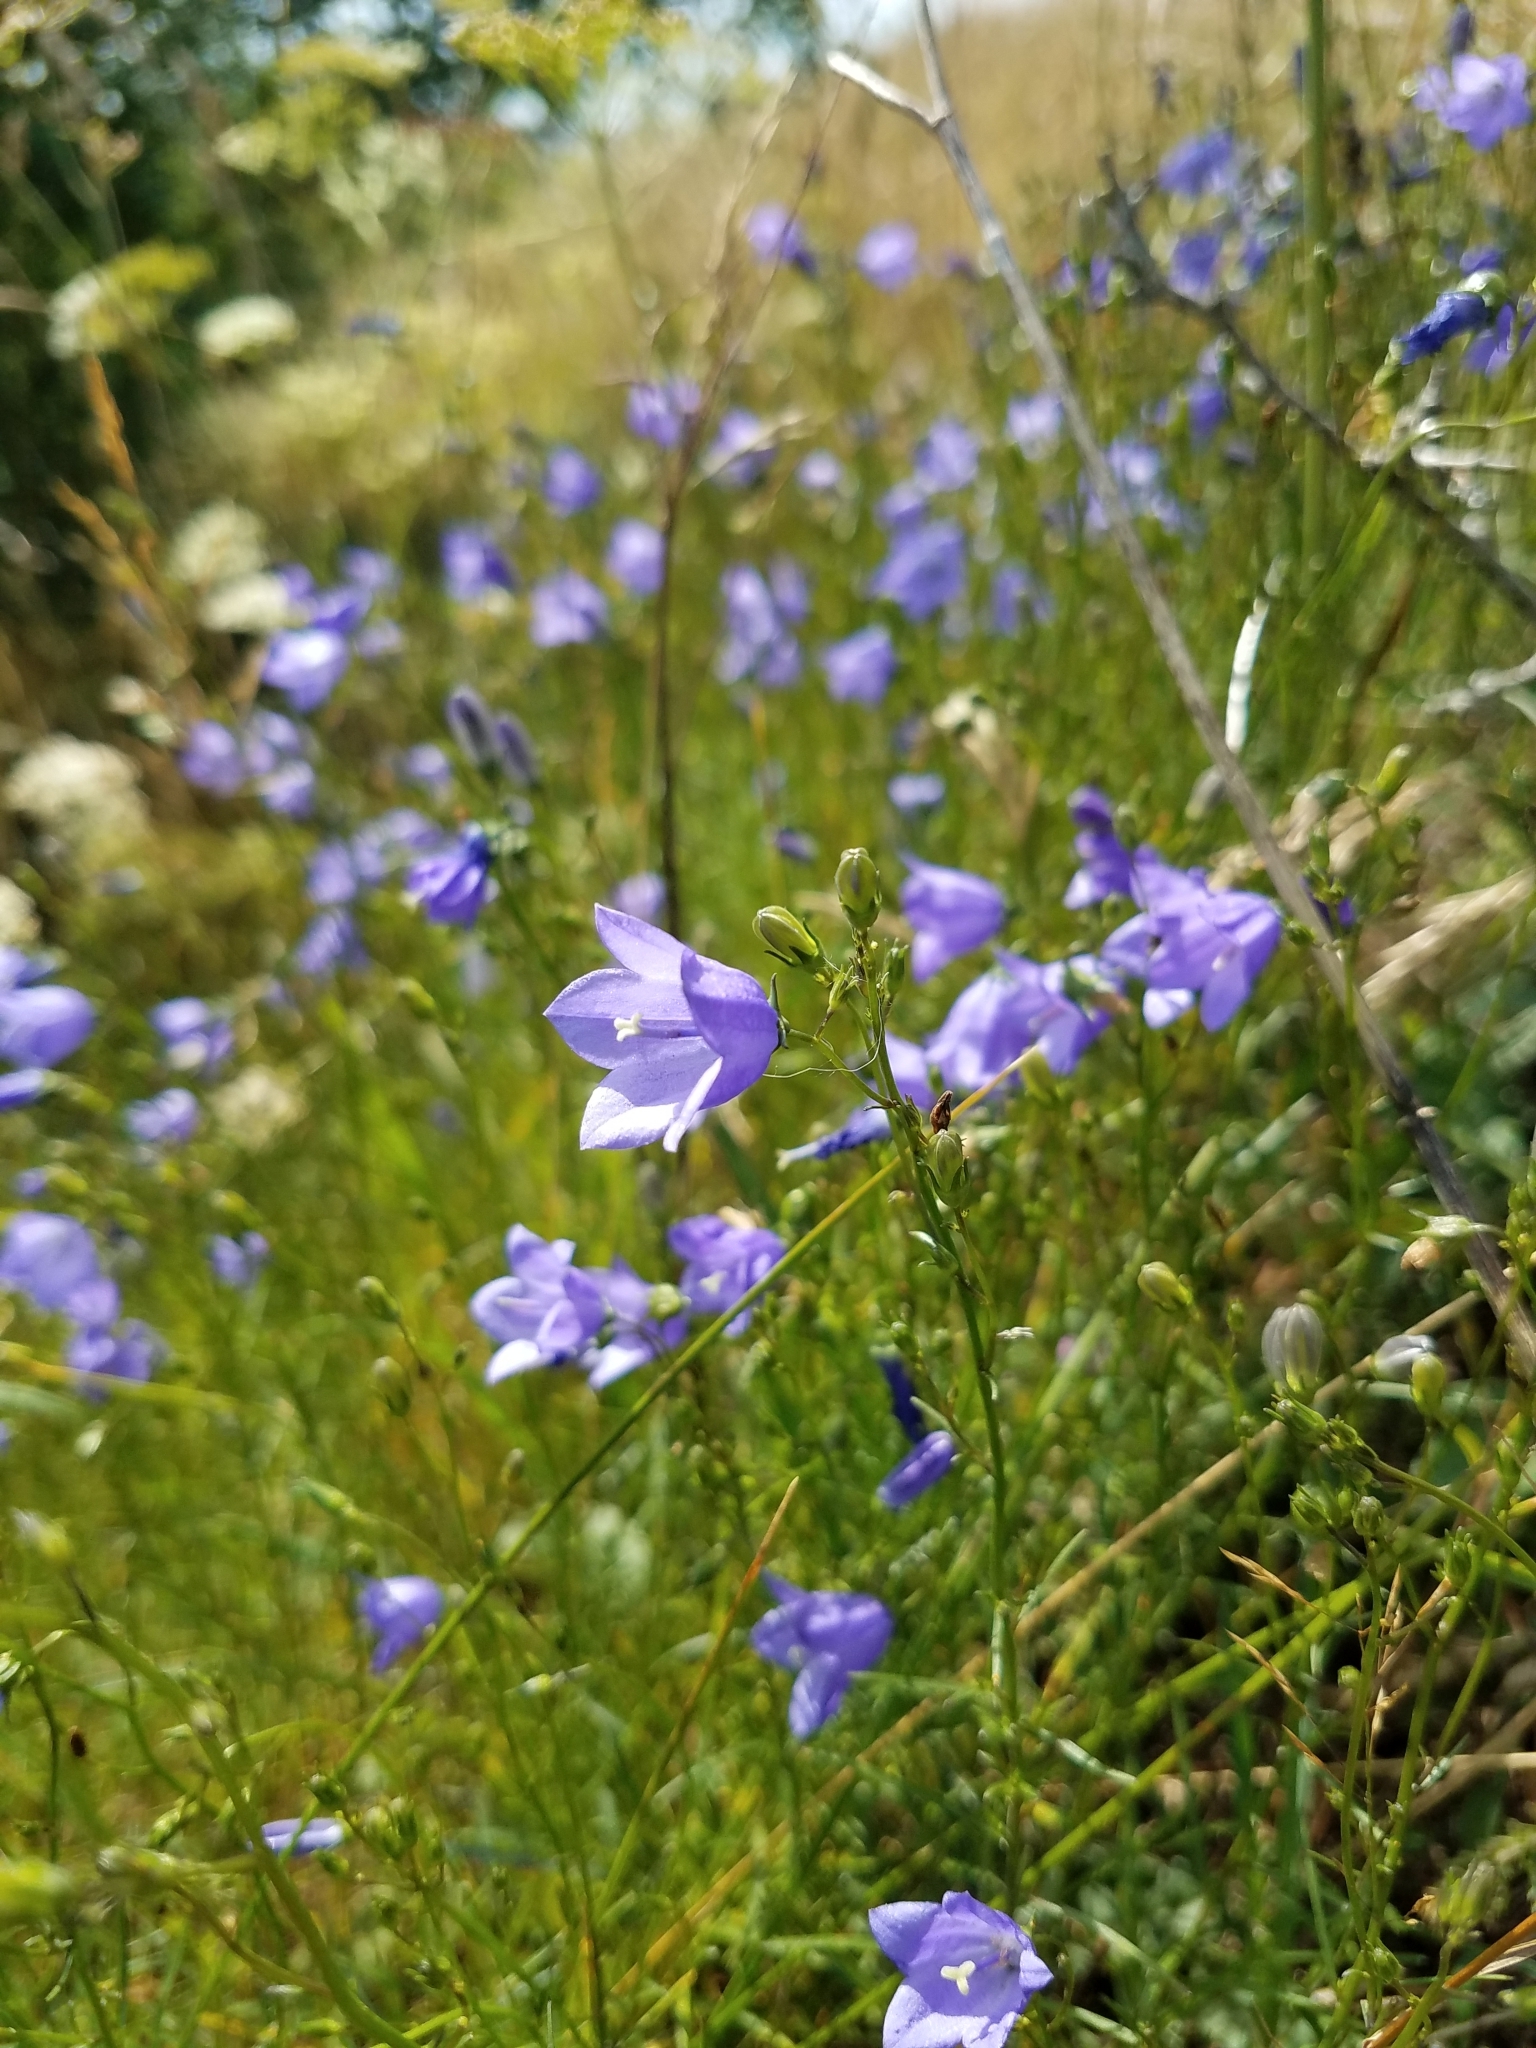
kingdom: Plantae
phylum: Tracheophyta
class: Magnoliopsida
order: Asterales
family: Campanulaceae
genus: Campanula
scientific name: Campanula rotundifolia
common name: Harebell
